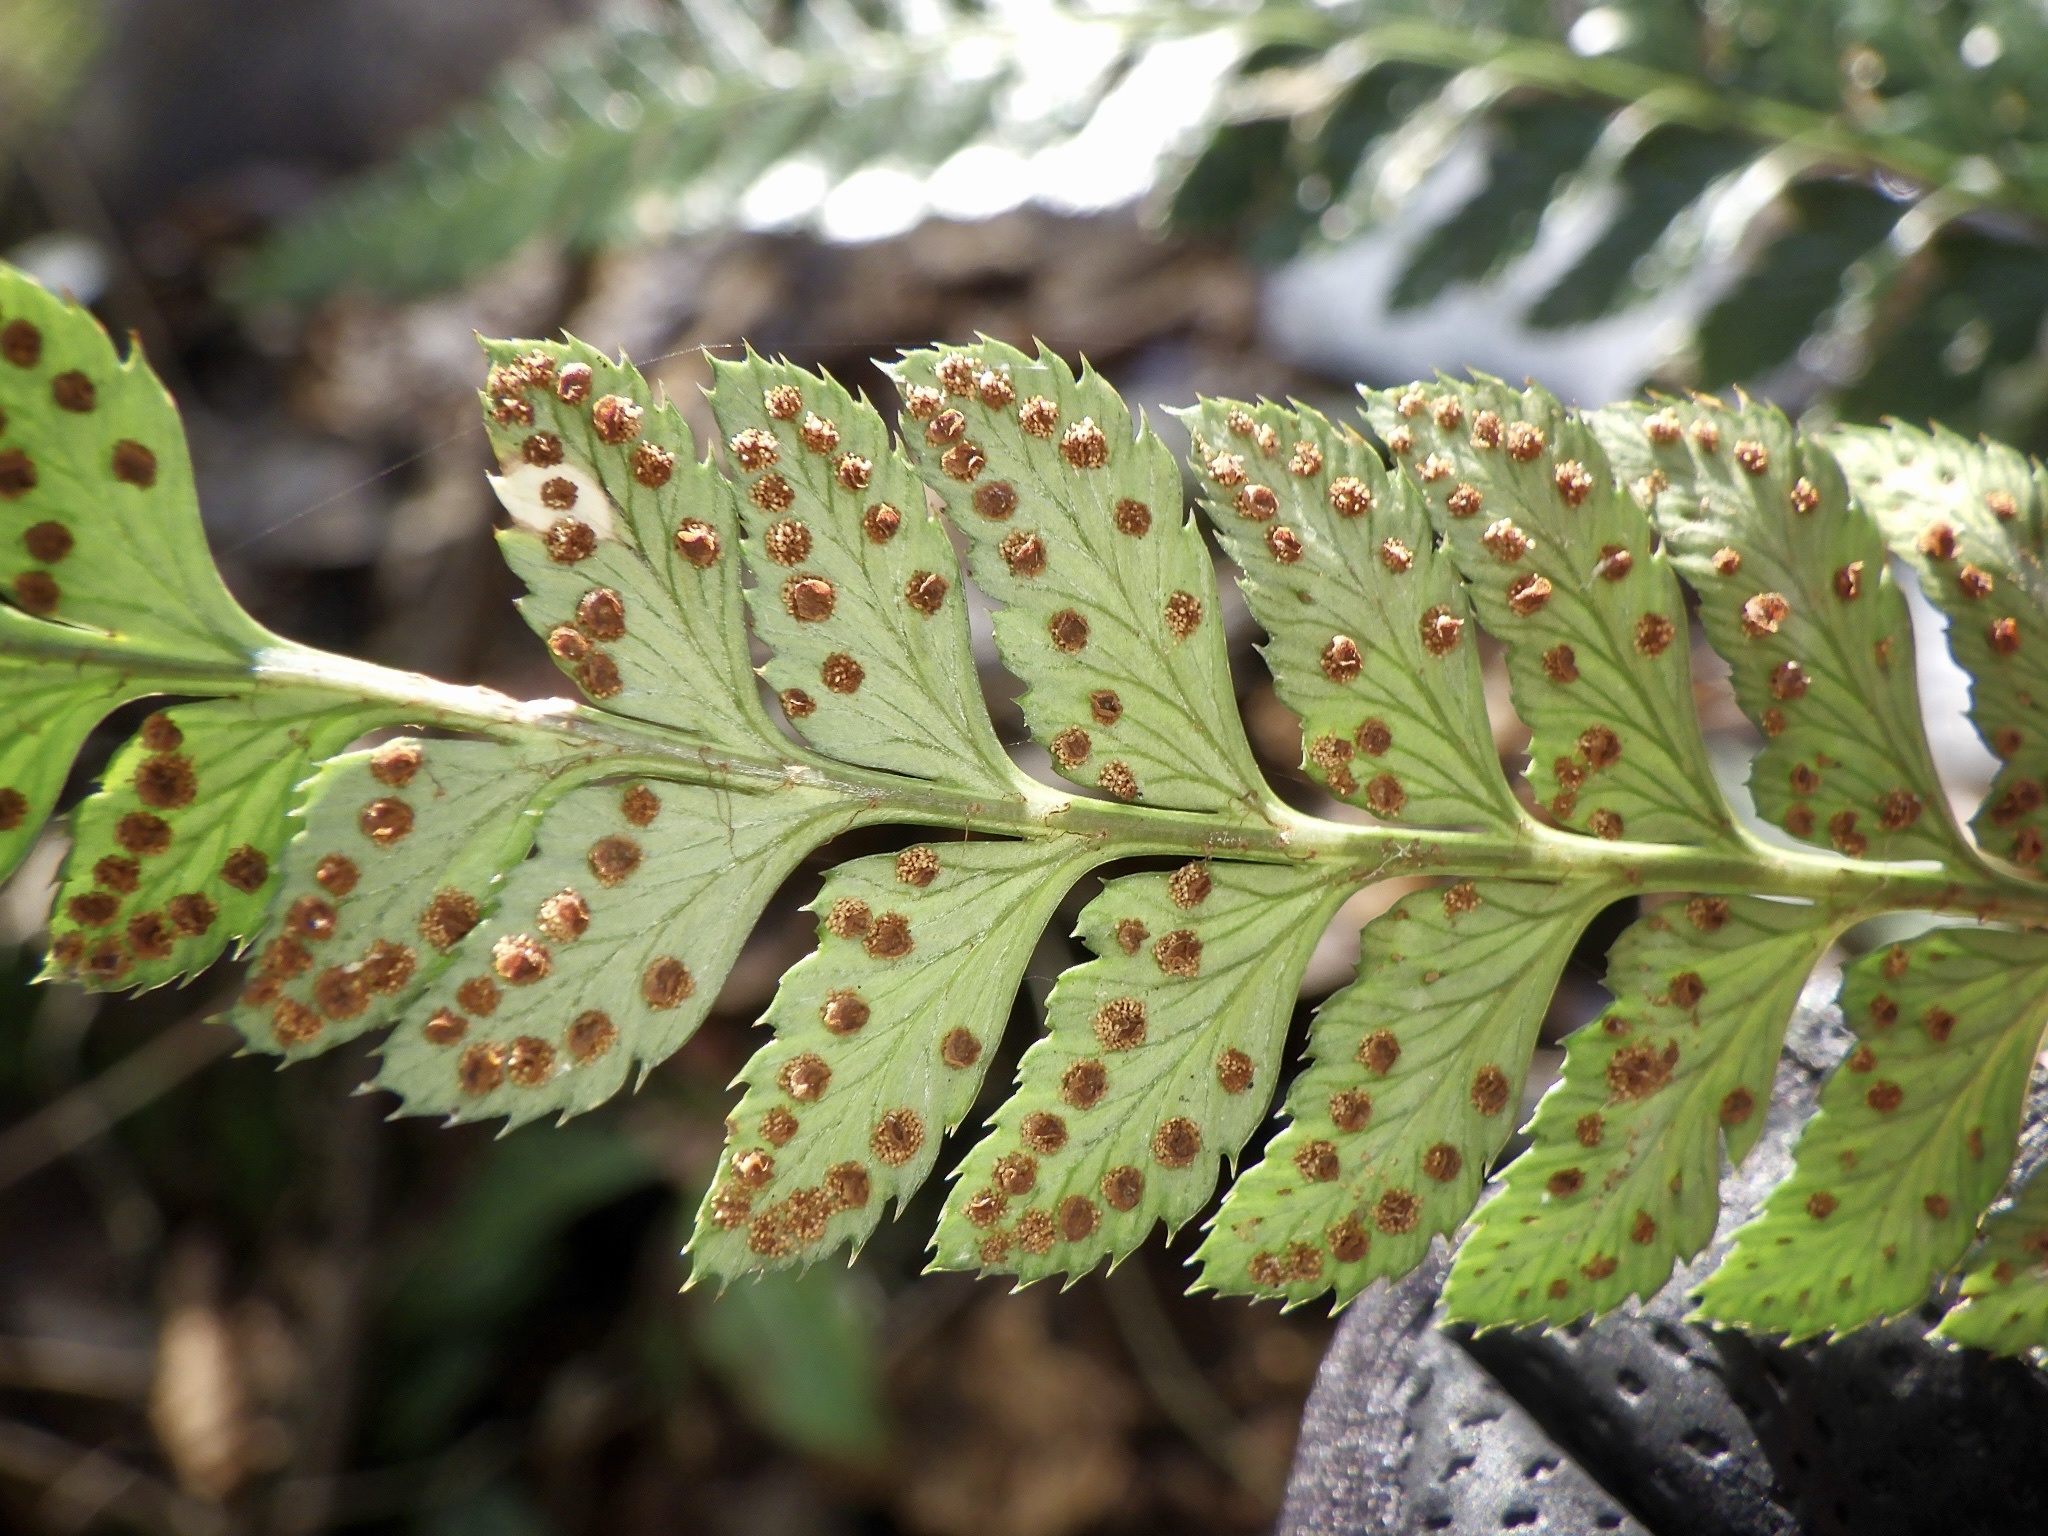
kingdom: Plantae
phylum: Tracheophyta
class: Polypodiopsida
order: Polypodiales
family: Dryopteridaceae
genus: Arachniodes
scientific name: Arachniodes simplicior
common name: Simpler hollyfern
